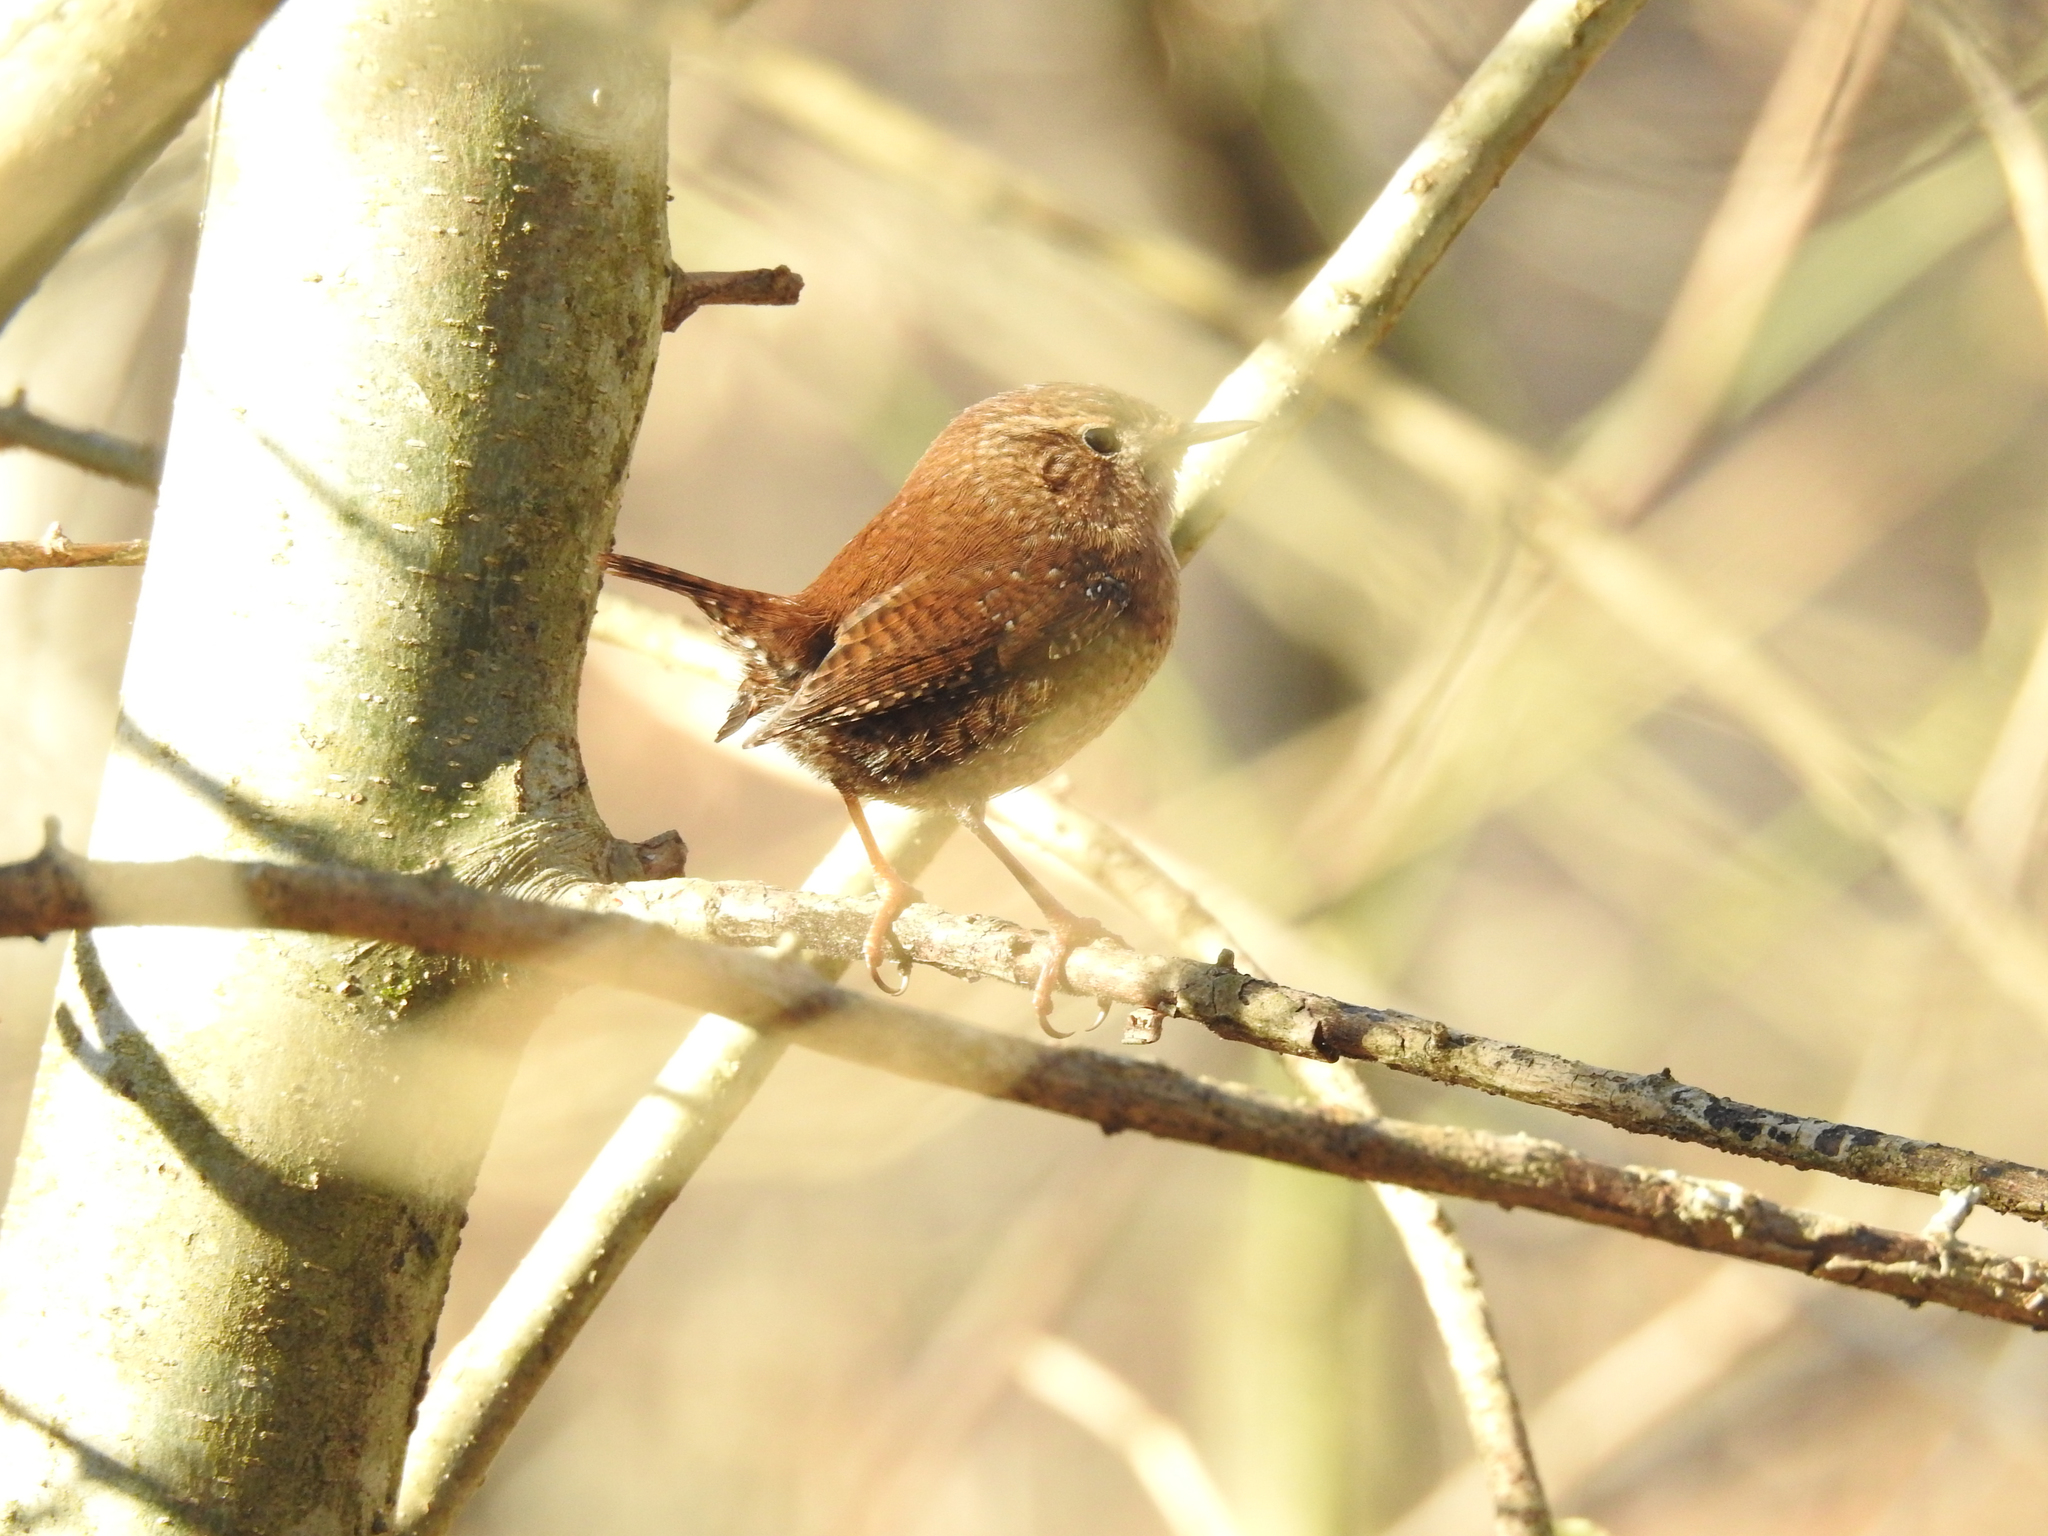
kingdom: Animalia
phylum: Chordata
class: Aves
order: Passeriformes
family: Troglodytidae
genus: Troglodytes
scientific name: Troglodytes hiemalis
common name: Winter wren
